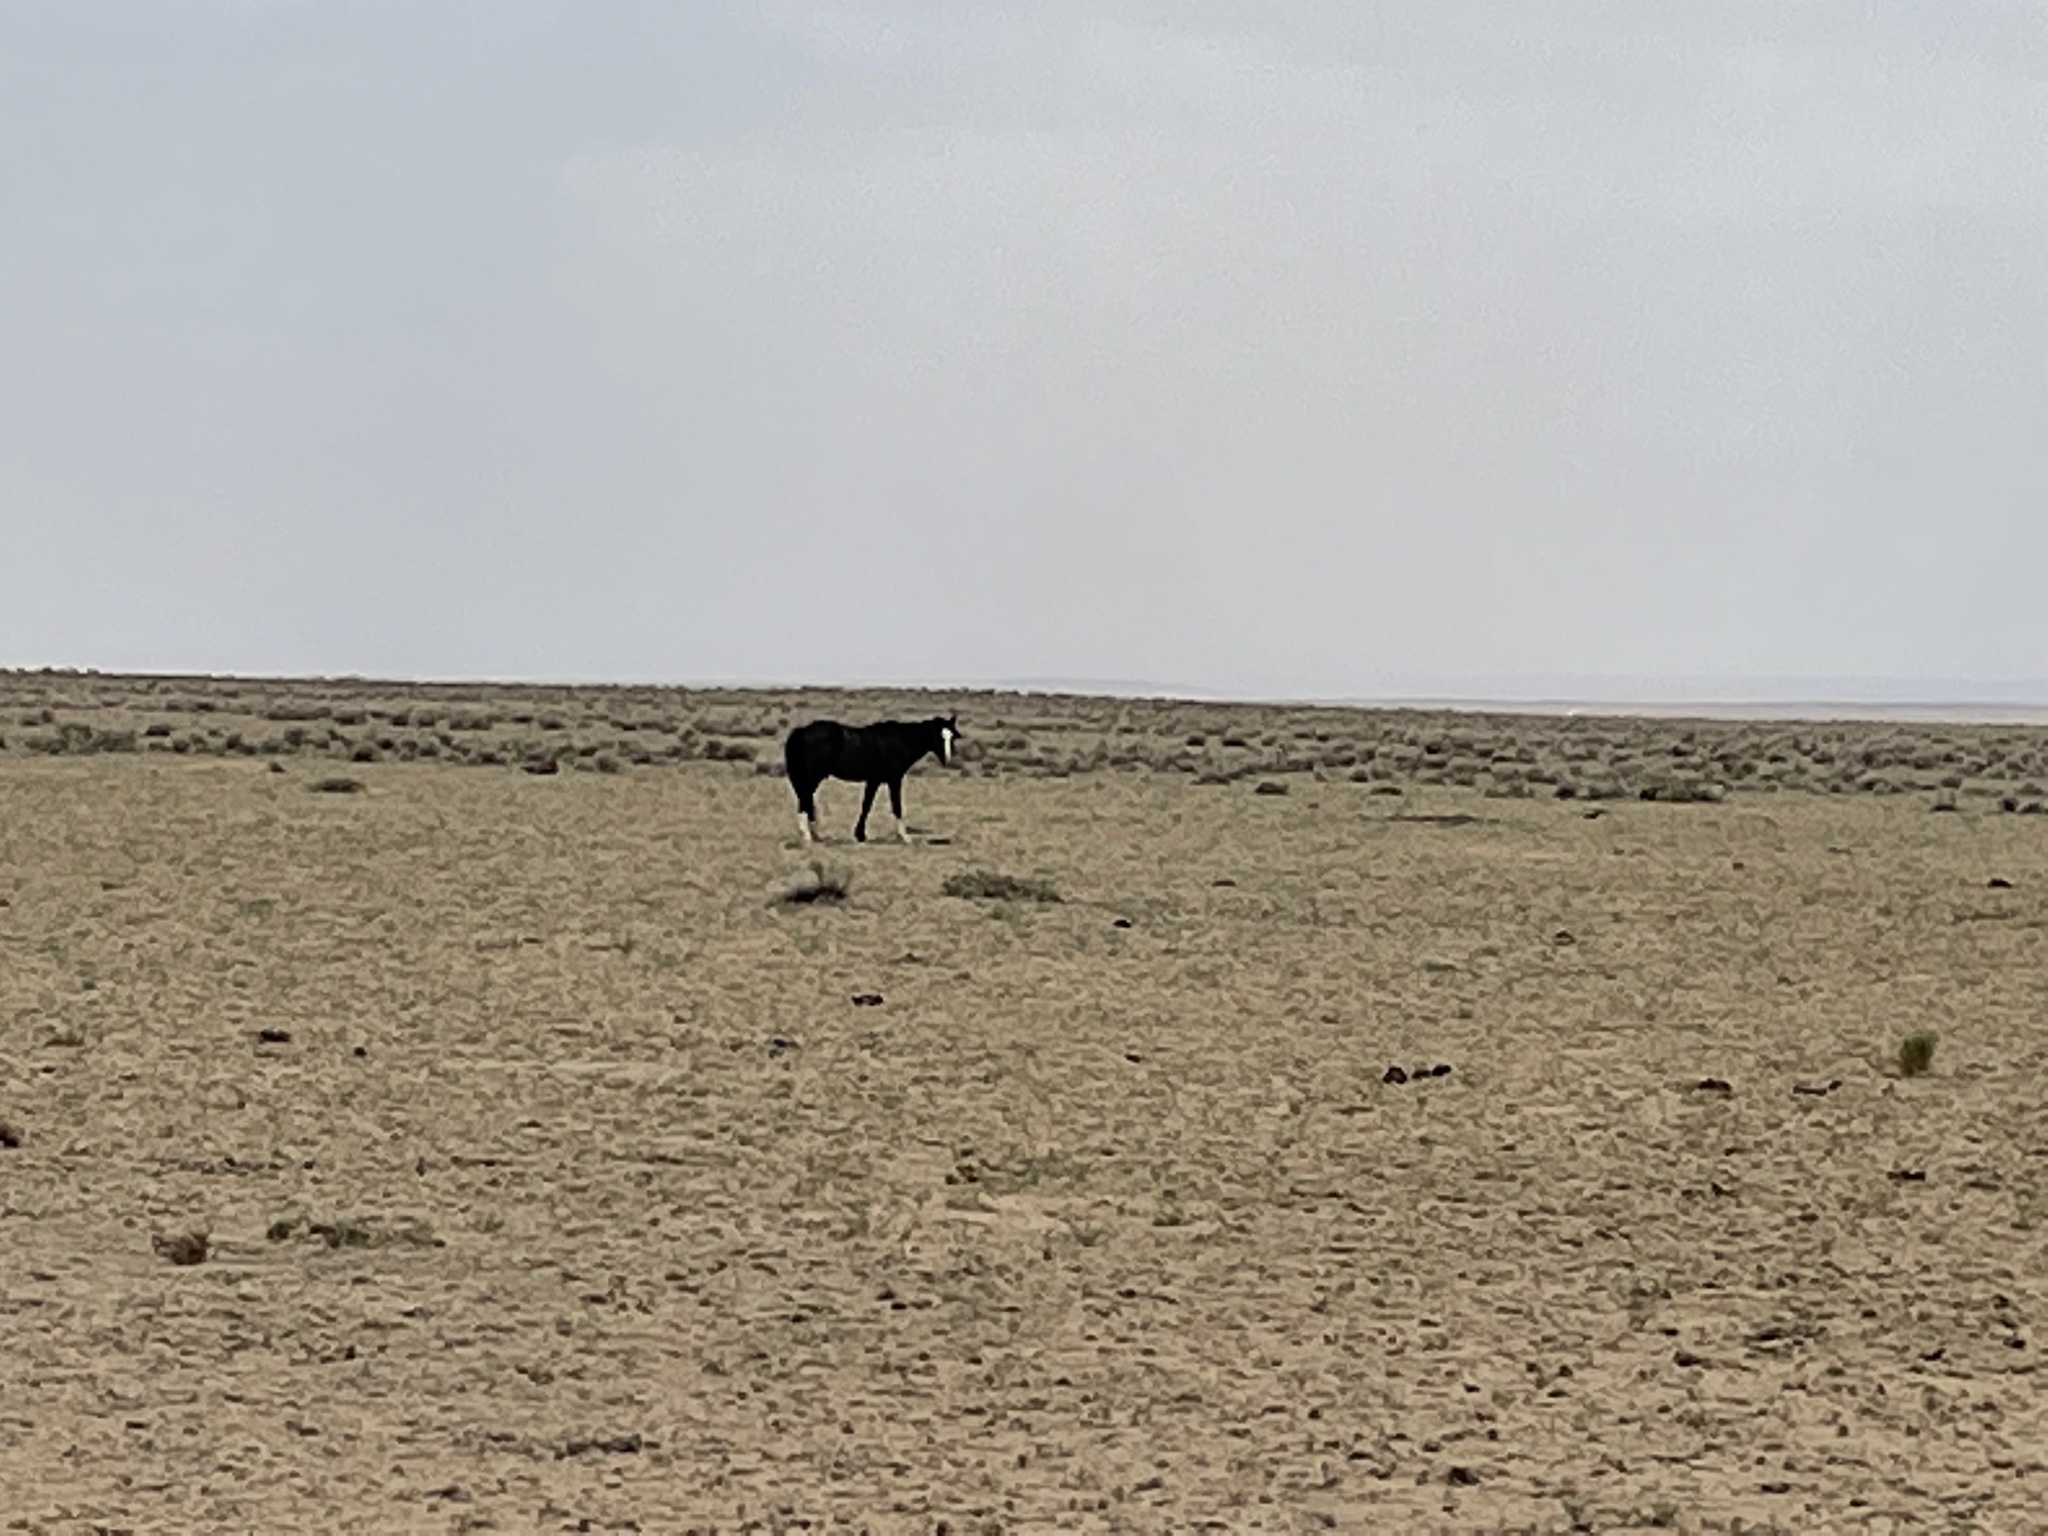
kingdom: Animalia
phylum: Chordata
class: Mammalia
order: Perissodactyla
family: Equidae
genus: Equus
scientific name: Equus caballus
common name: Horse
